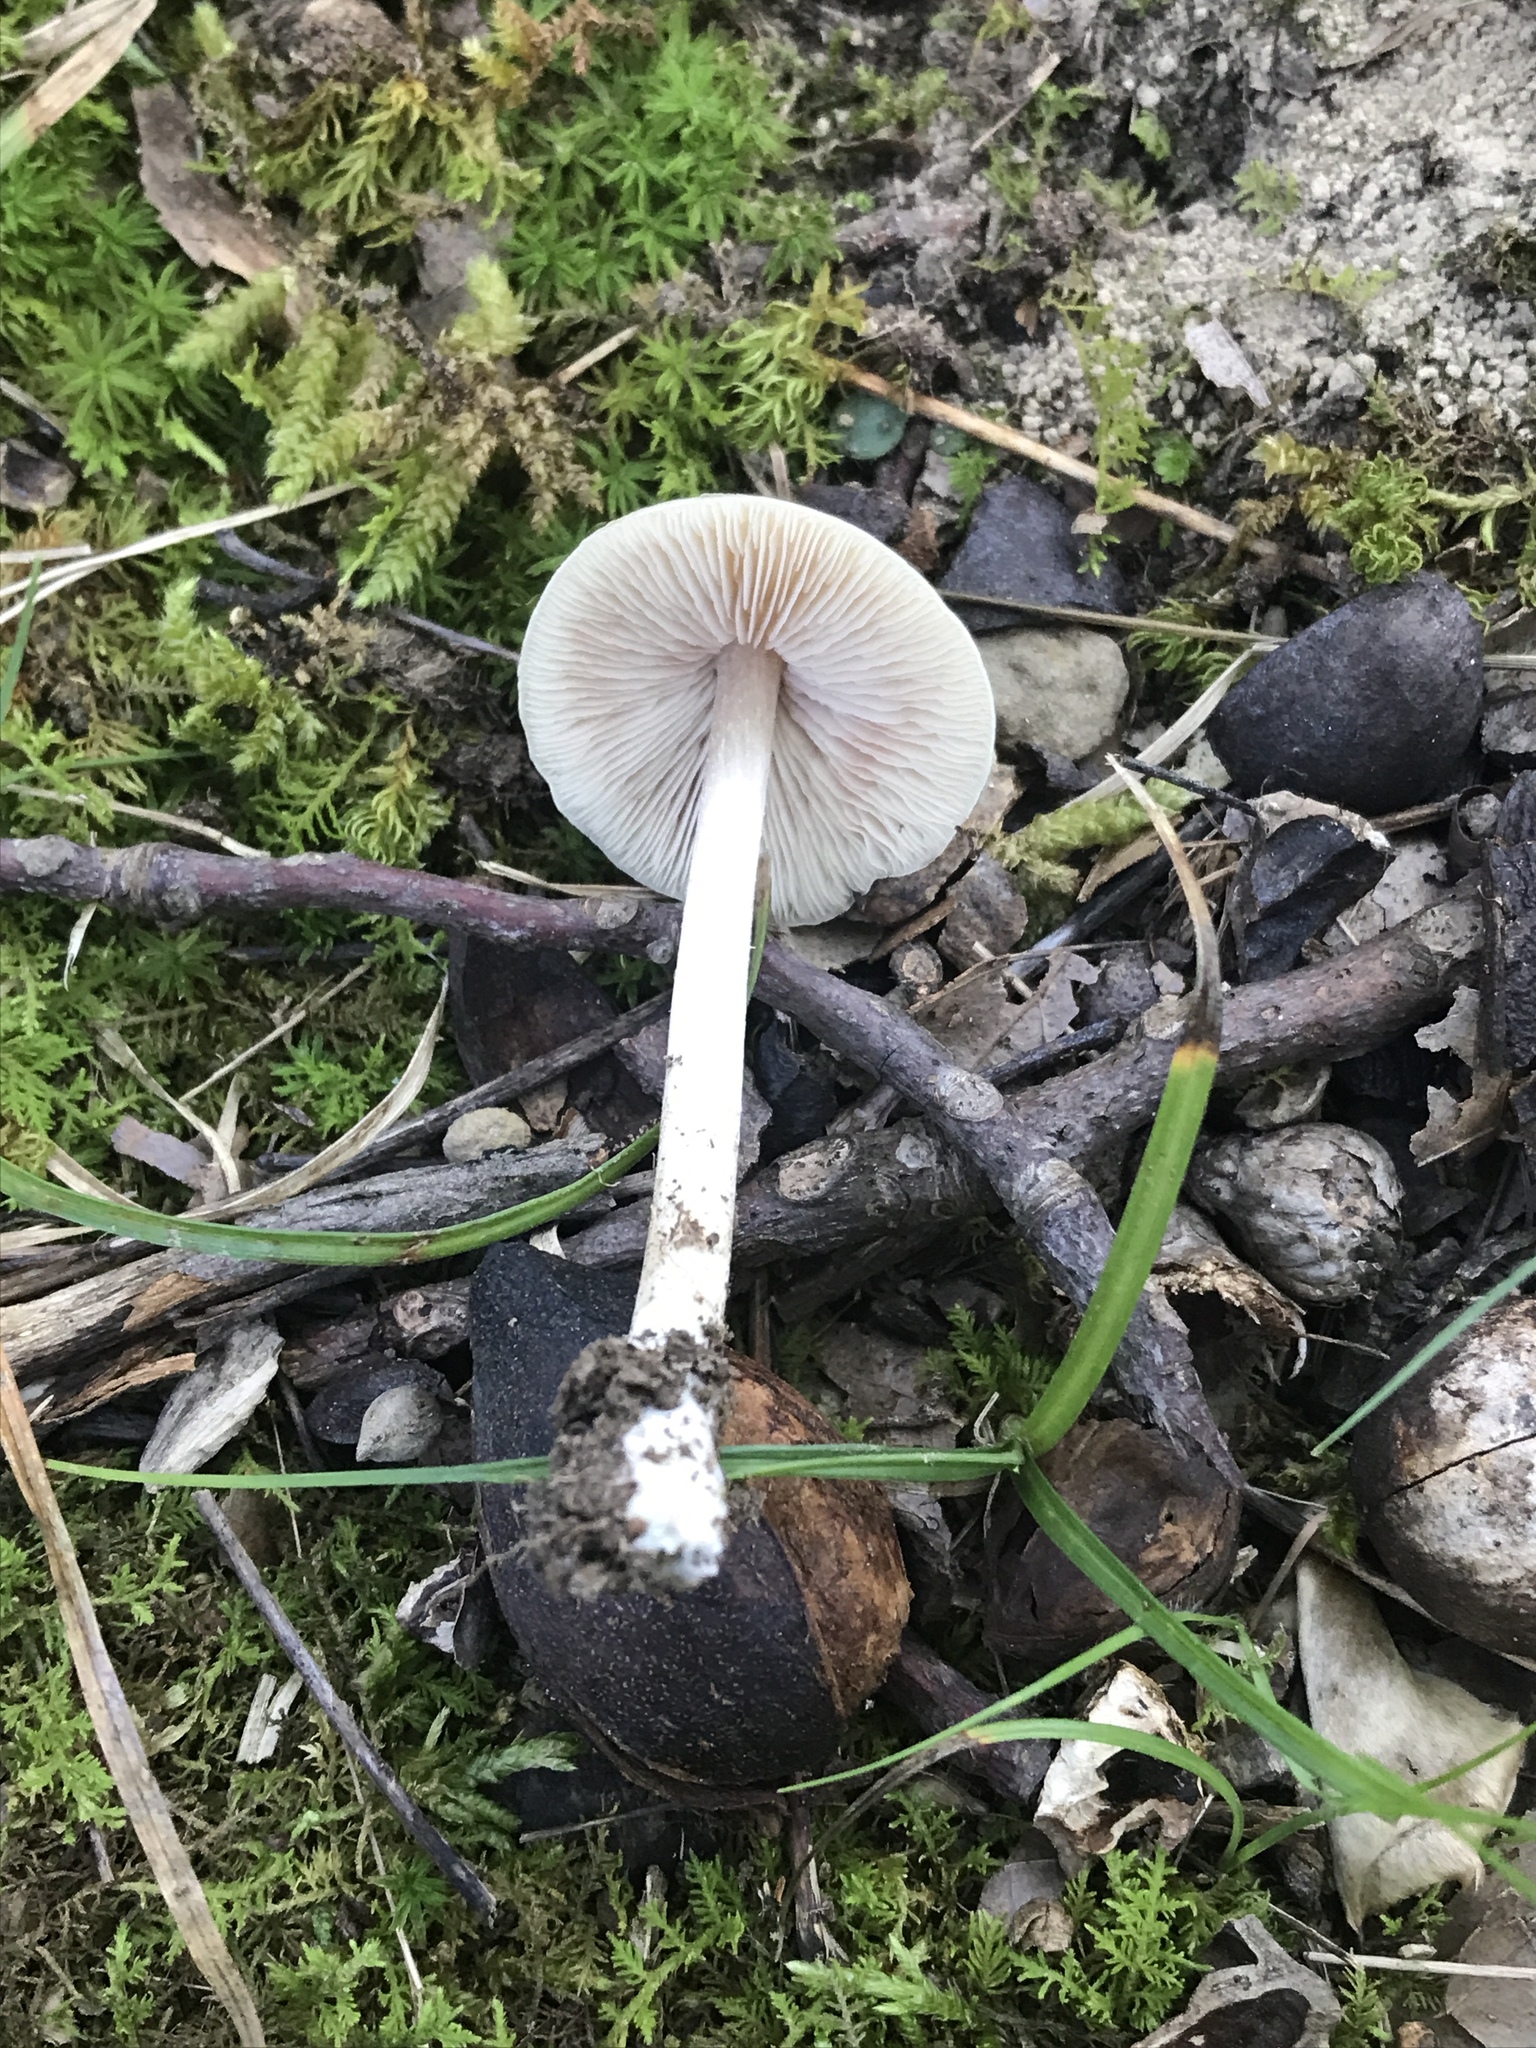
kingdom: Fungi
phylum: Basidiomycota
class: Agaricomycetes
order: Agaricales
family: Entolomataceae
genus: Entoloma
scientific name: Entoloma strictius
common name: Straight-stalked entoloma
